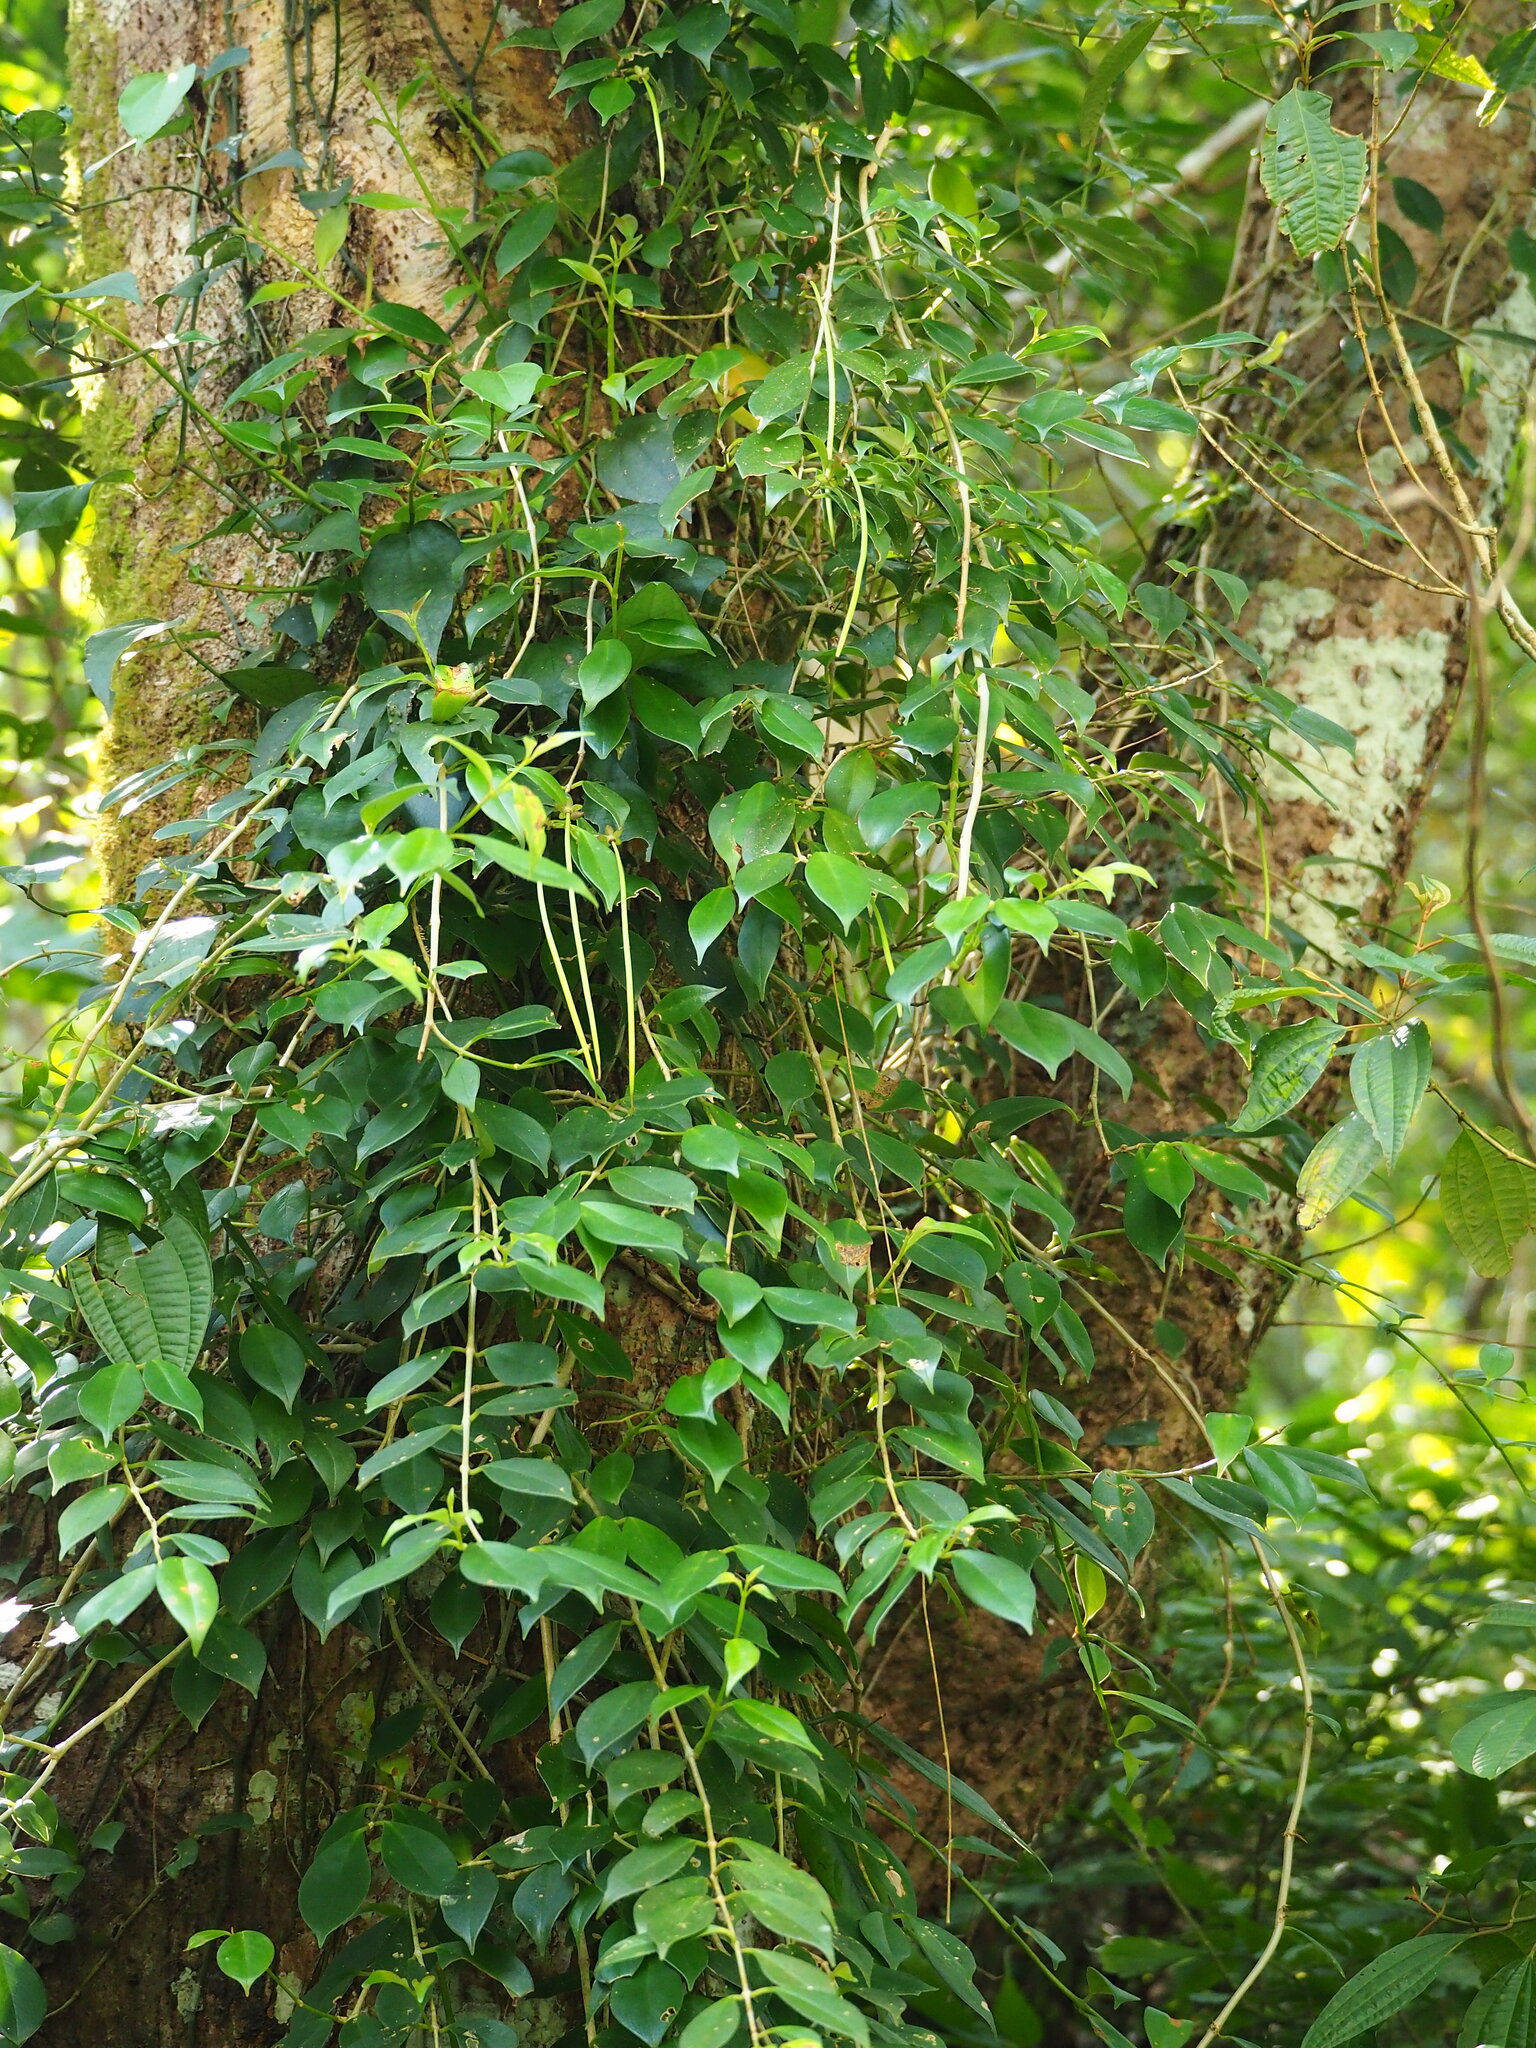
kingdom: Plantae
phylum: Tracheophyta
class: Magnoliopsida
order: Lamiales
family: Gesneriaceae
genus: Aeschynanthus
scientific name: Aeschynanthus acuminatus
